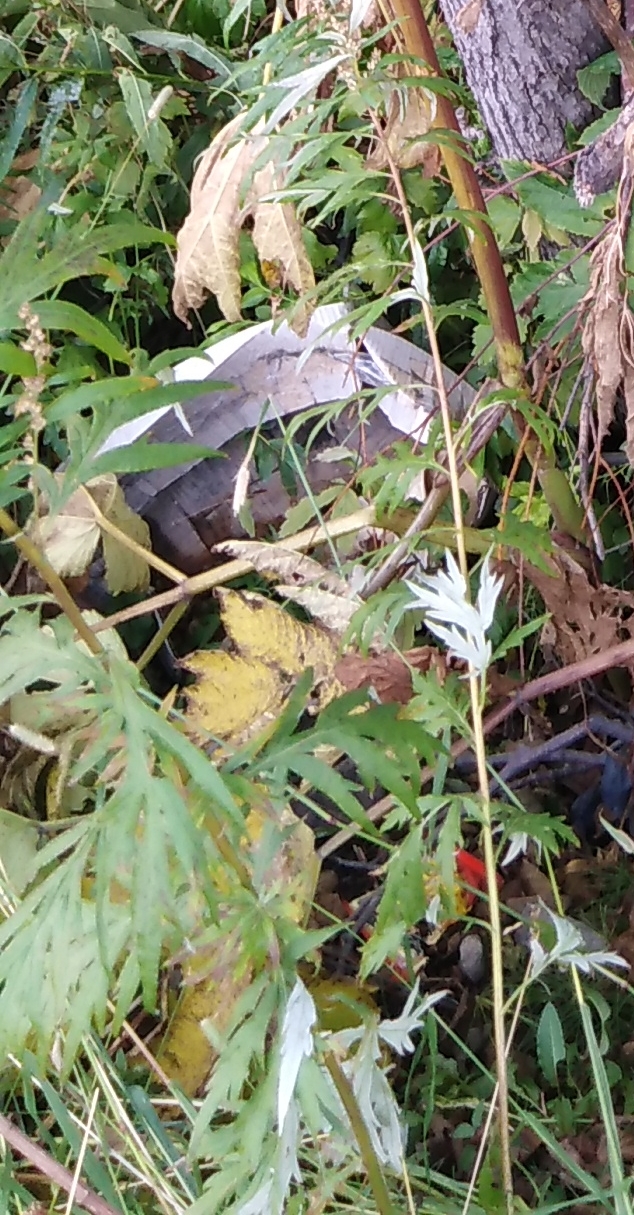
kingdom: Plantae
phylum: Tracheophyta
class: Magnoliopsida
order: Asterales
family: Asteraceae
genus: Artemisia
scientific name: Artemisia vulgaris
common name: Mugwort
